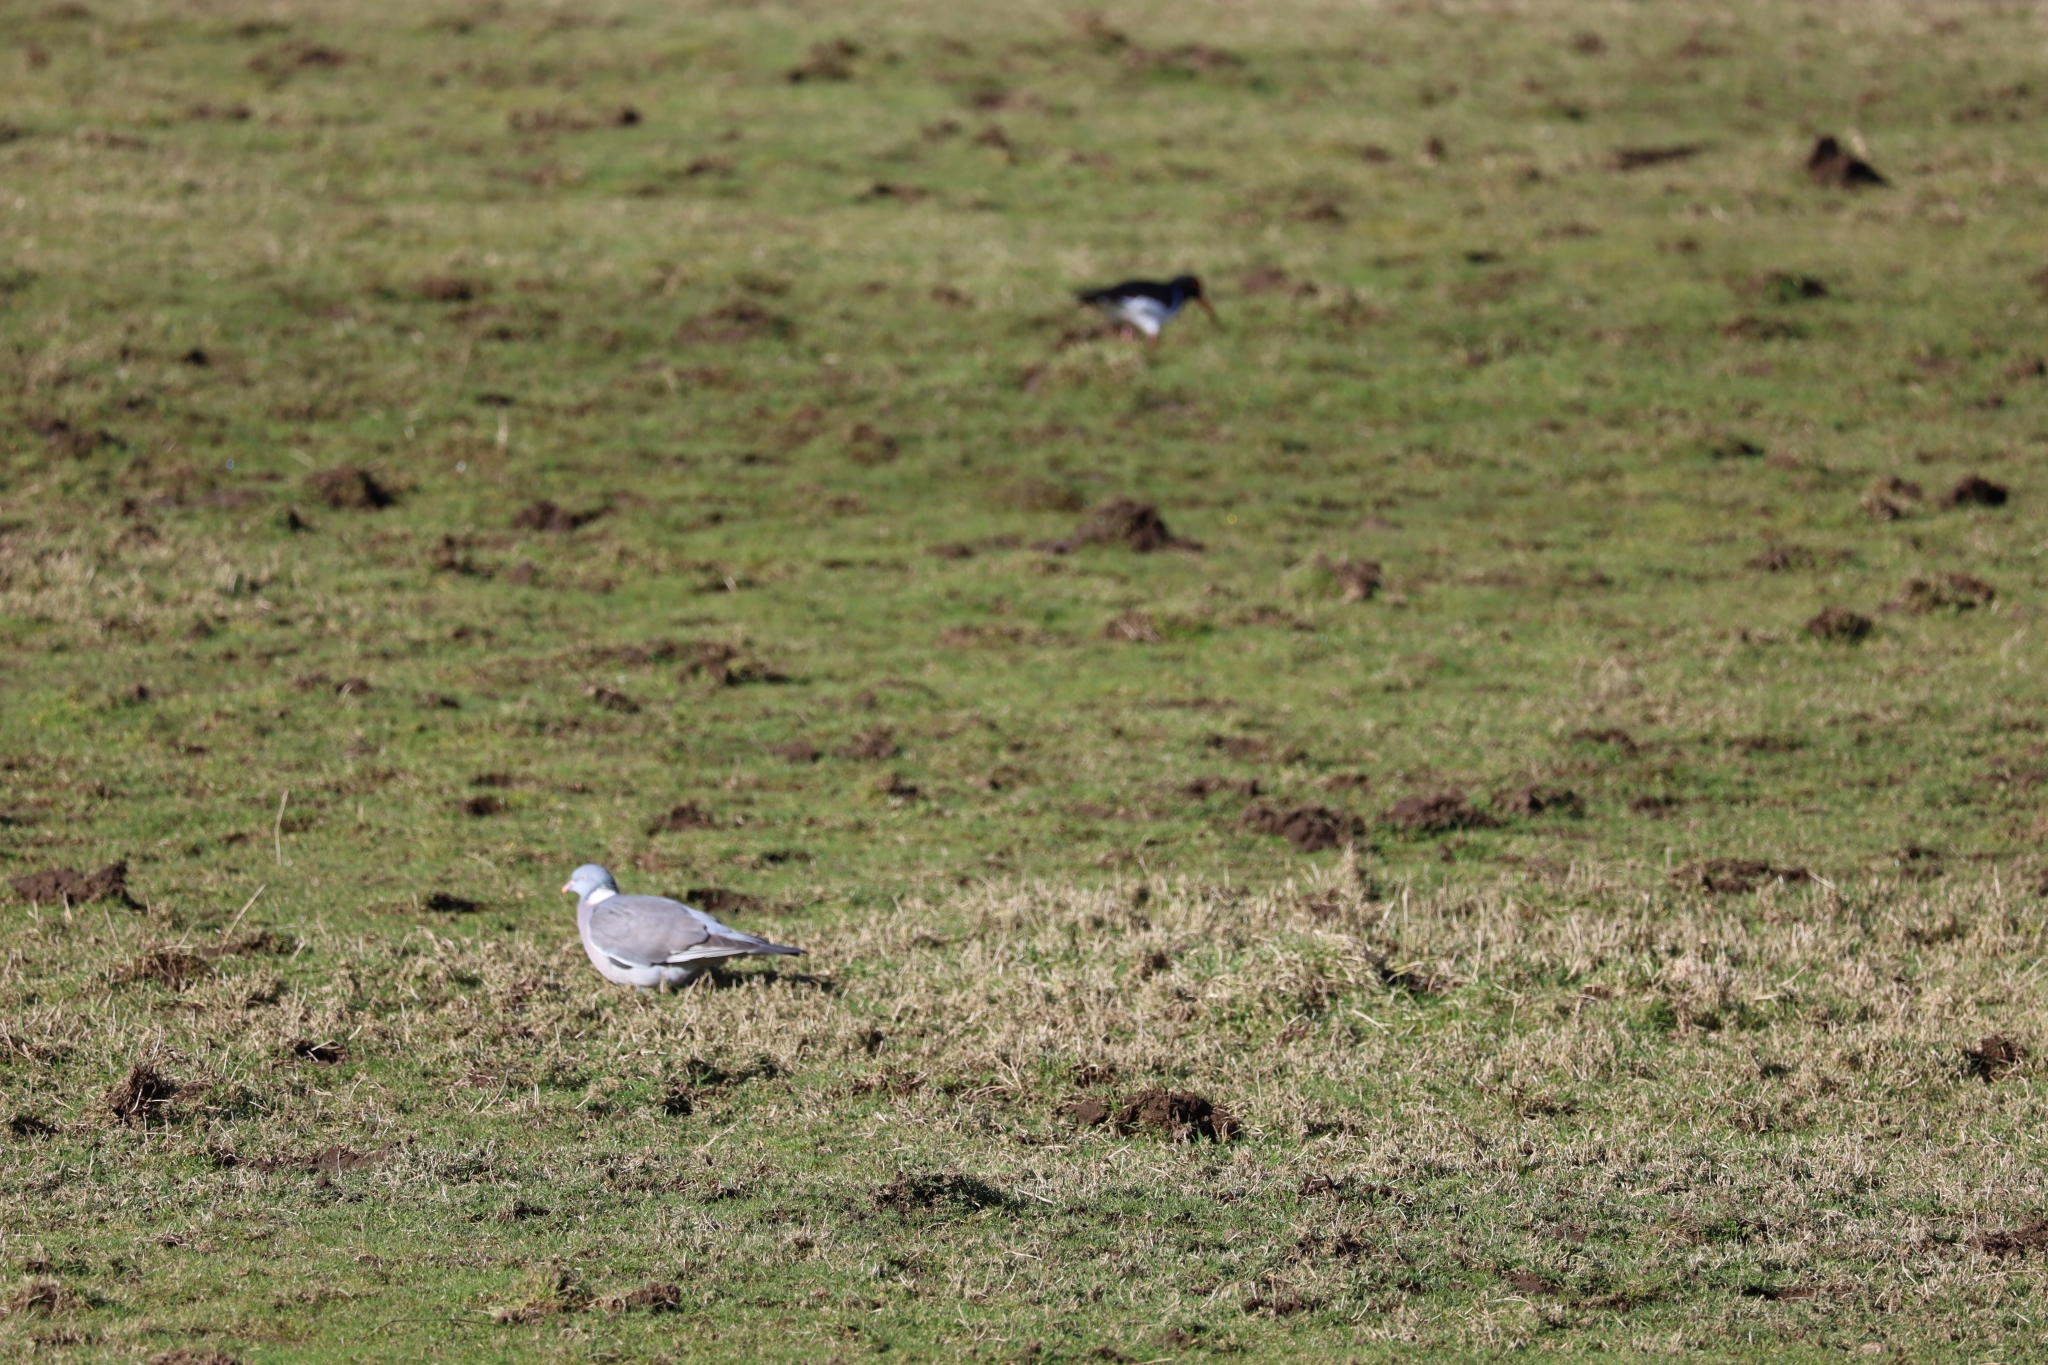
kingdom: Animalia
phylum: Chordata
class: Aves
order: Columbiformes
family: Columbidae
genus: Columba
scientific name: Columba palumbus
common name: Common wood pigeon
